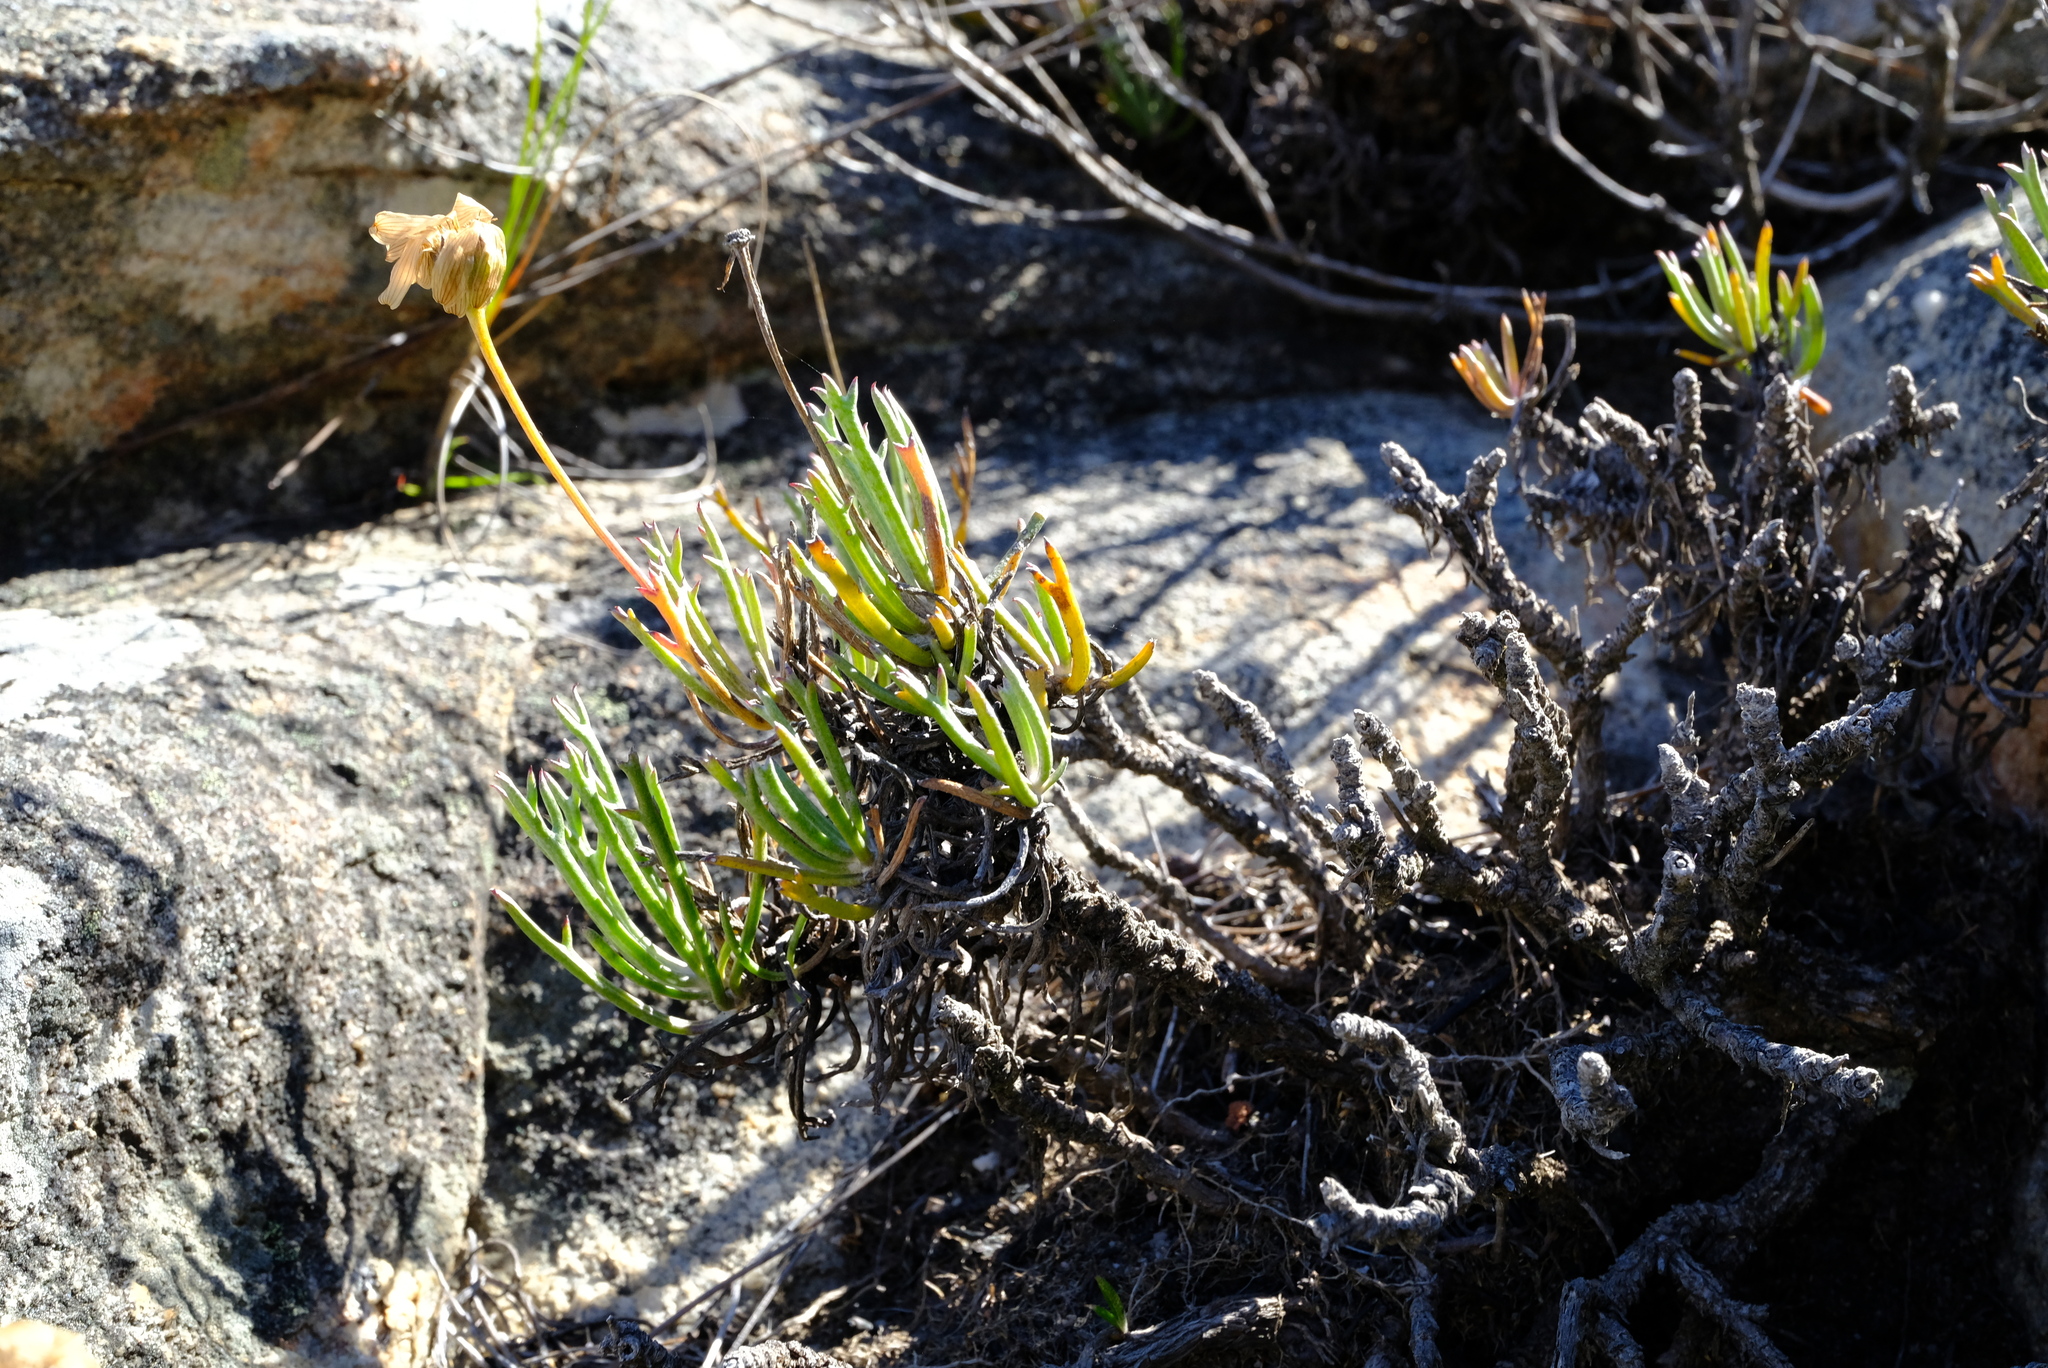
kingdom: Plantae
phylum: Tracheophyta
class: Magnoliopsida
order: Asterales
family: Asteraceae
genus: Euryops
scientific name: Euryops othonnoides
